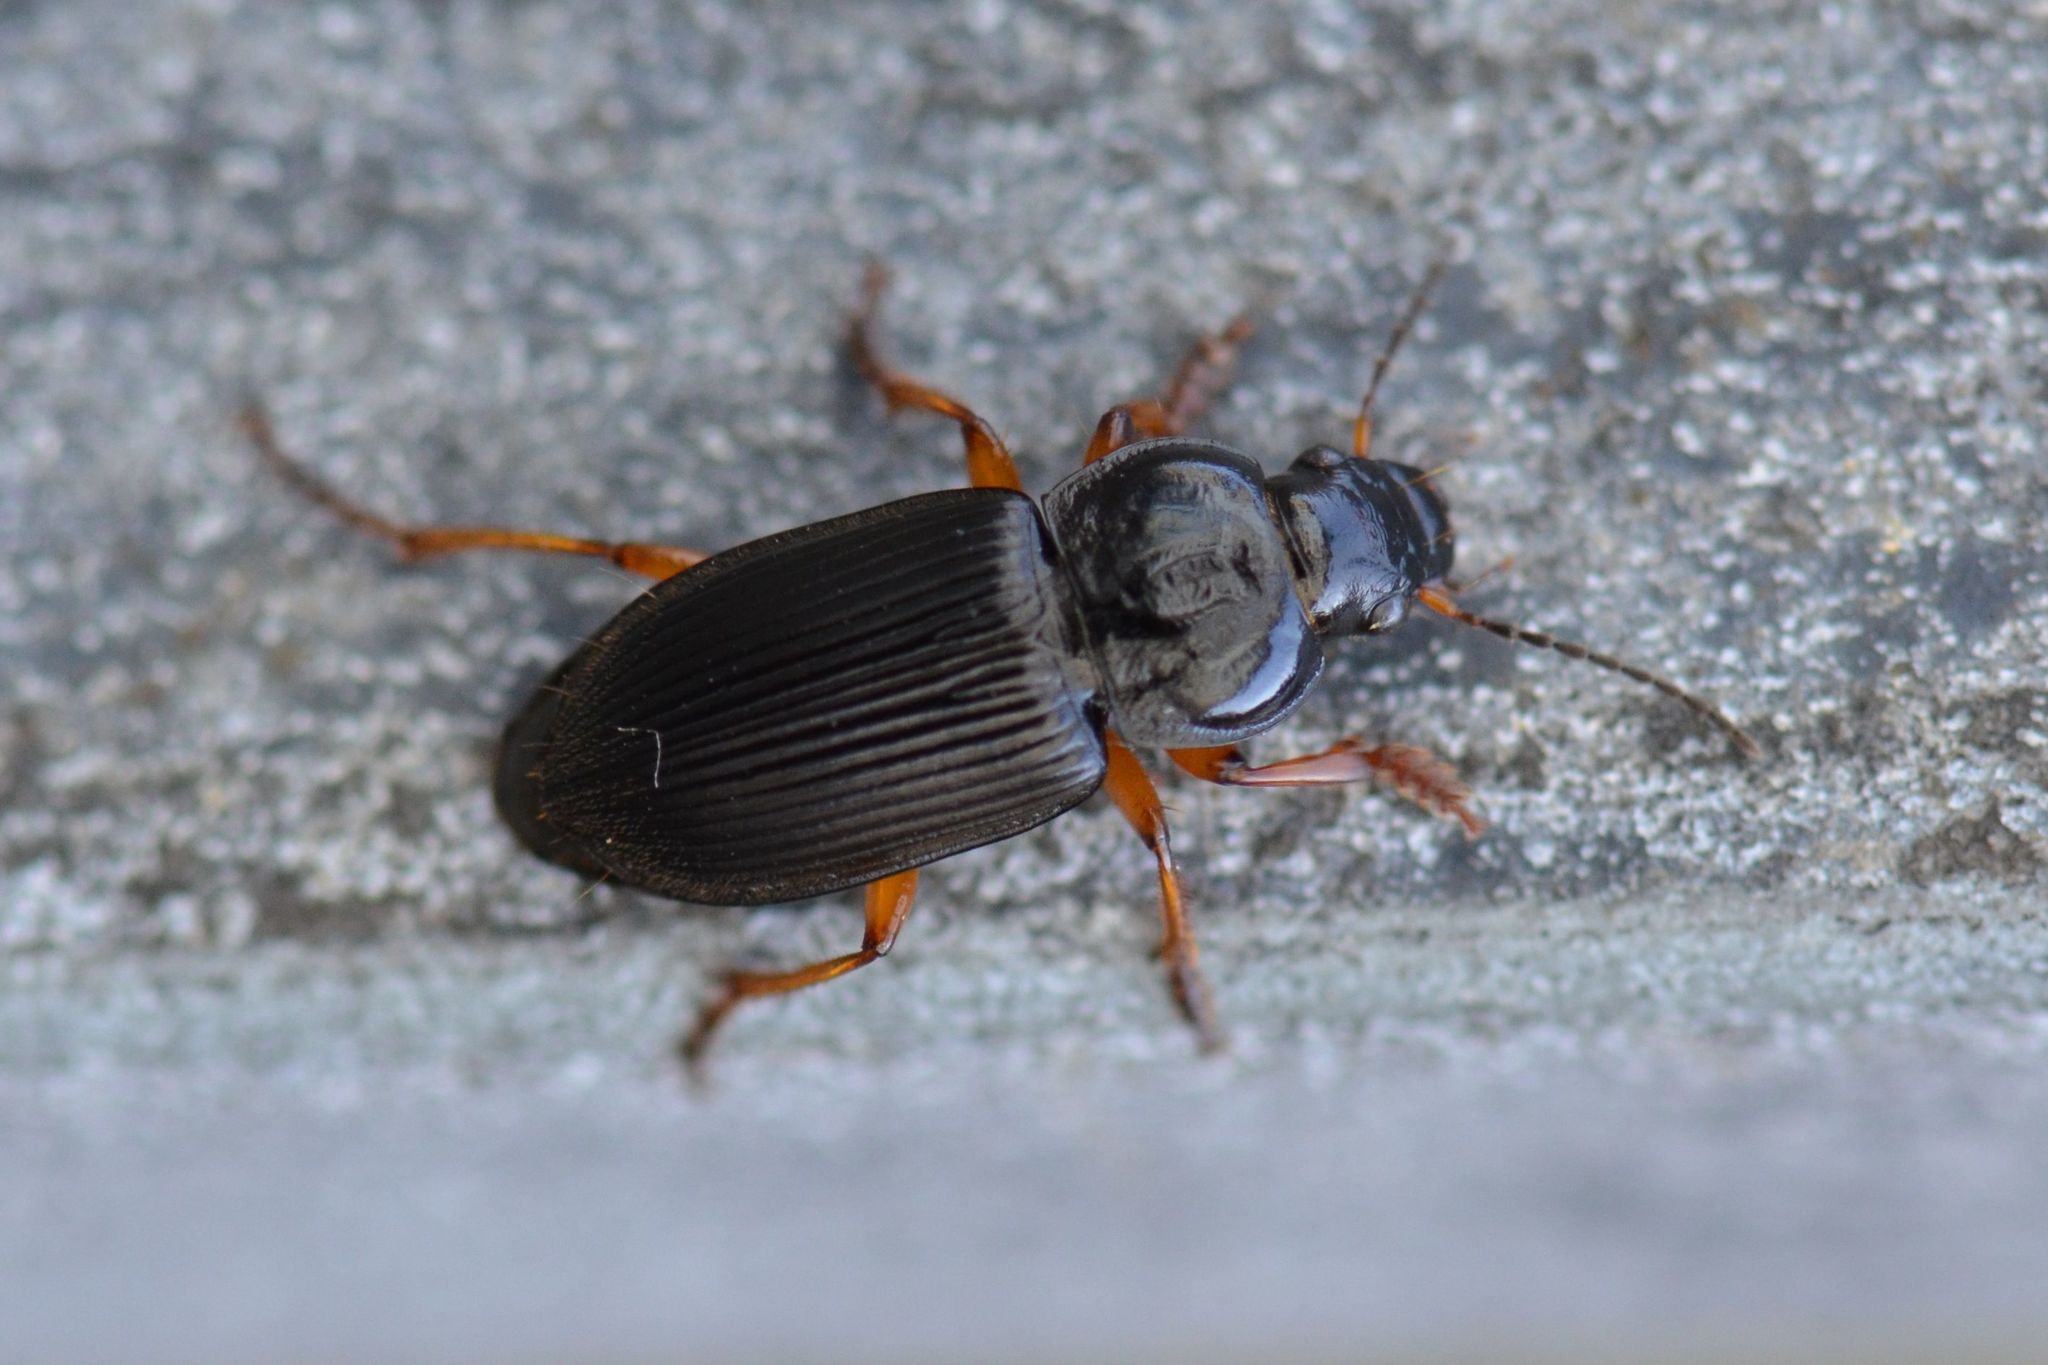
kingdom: Animalia
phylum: Arthropoda
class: Insecta
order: Coleoptera
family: Carabidae
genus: Anisodactylus
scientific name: Anisodactylus binotatus
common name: Two-marked harp ground beetle
